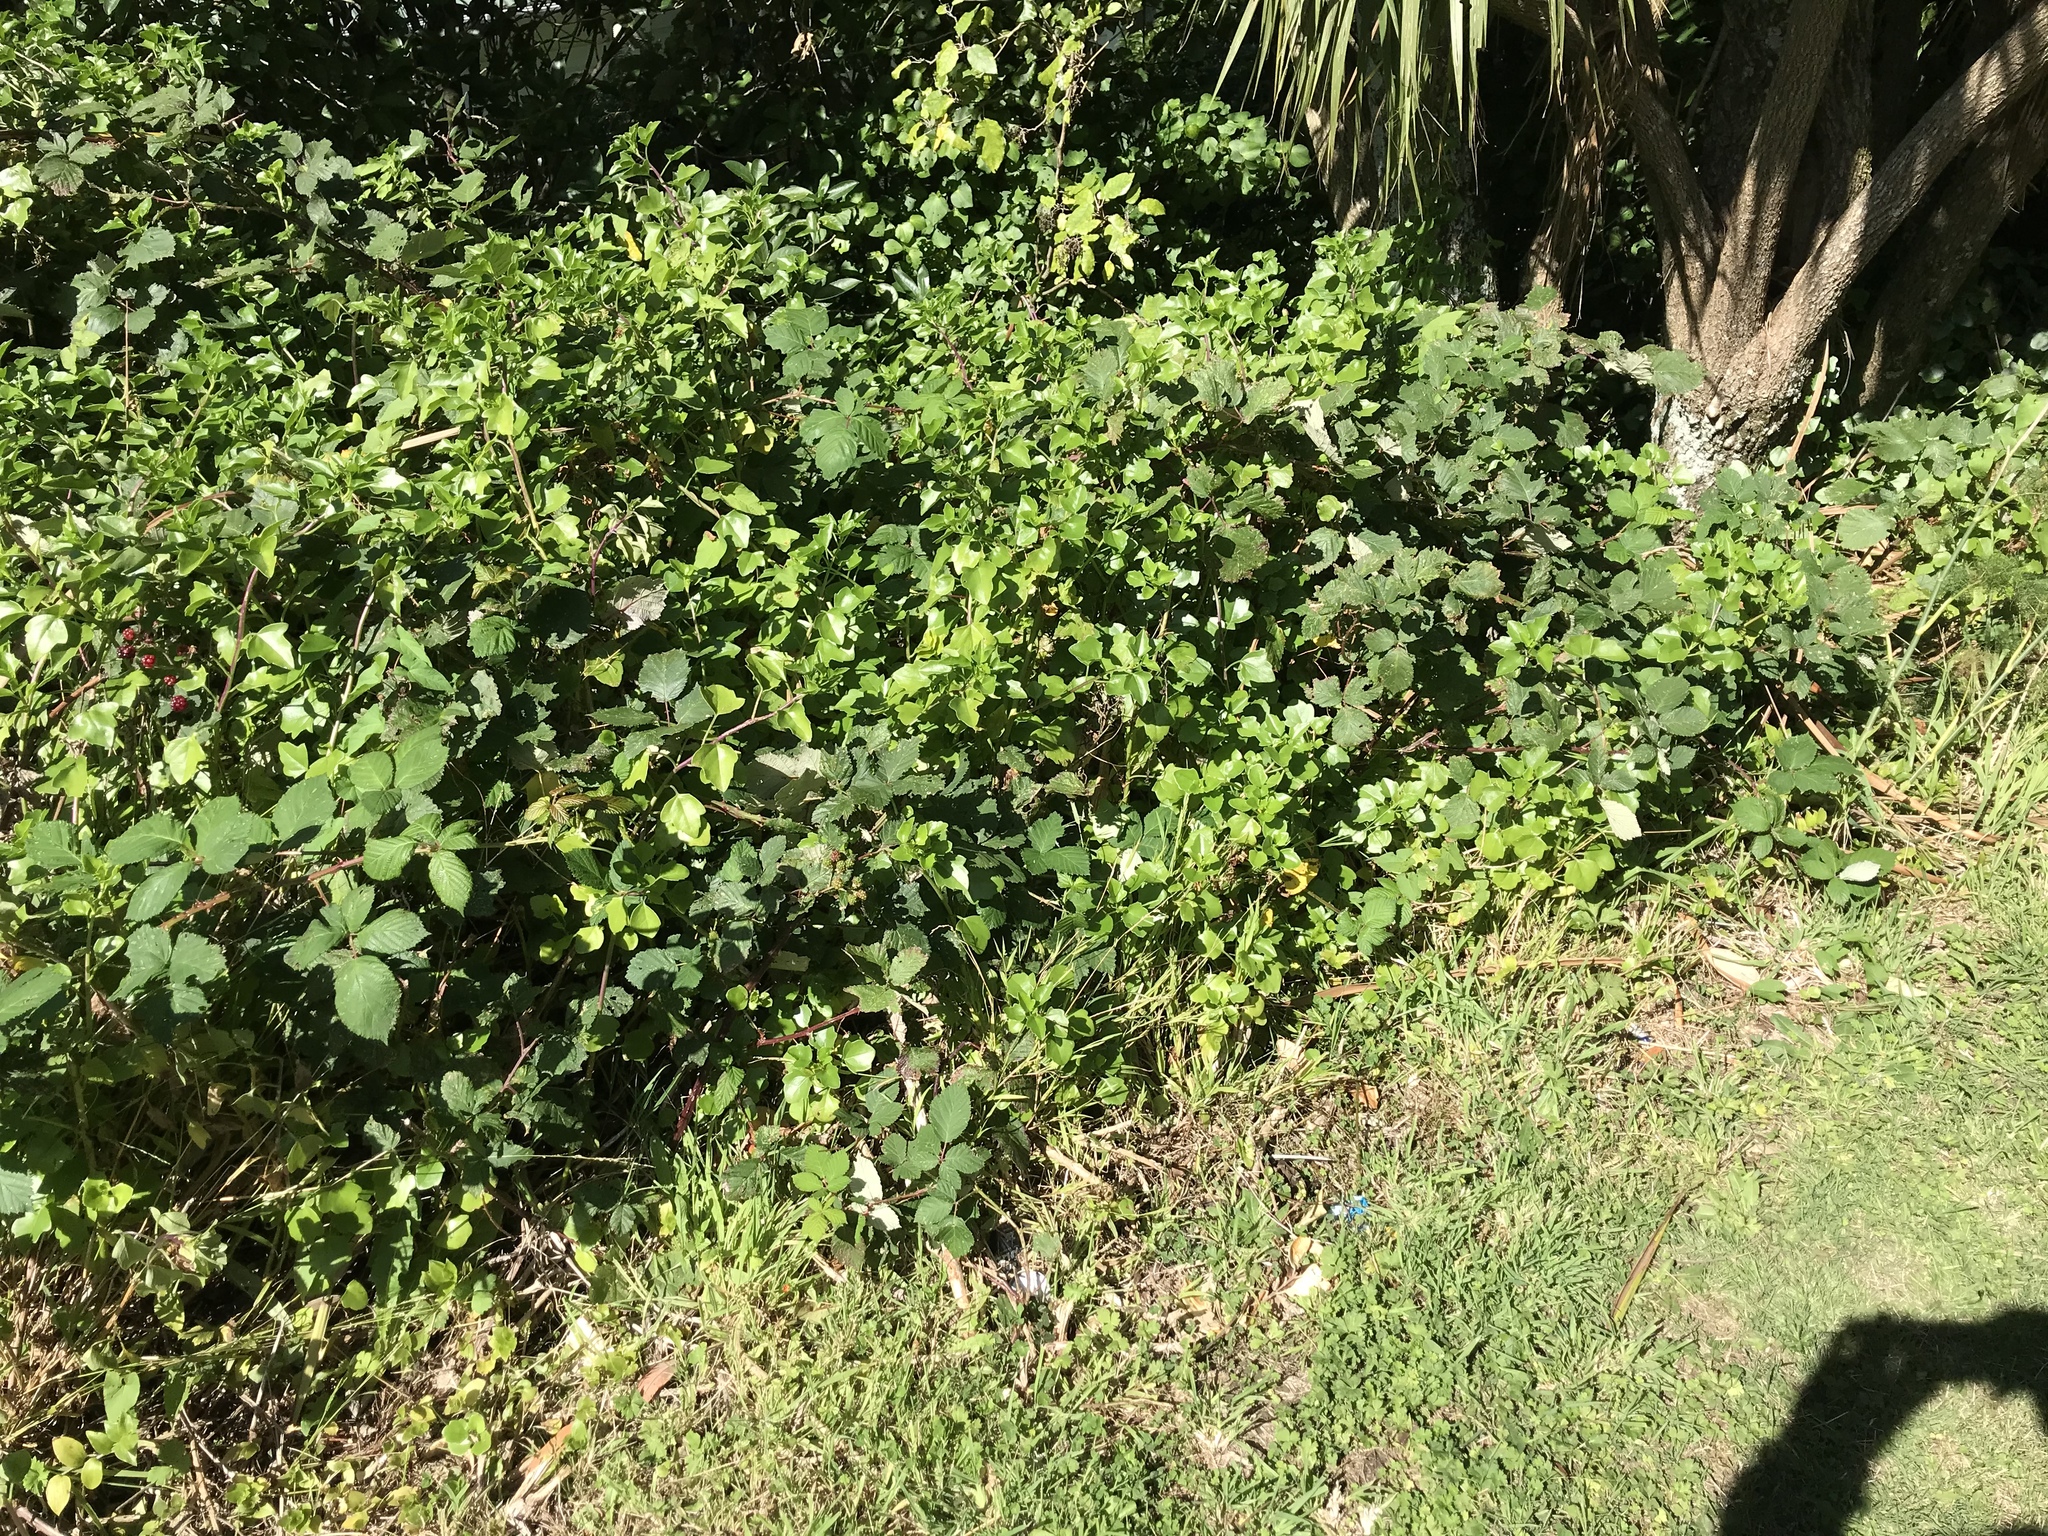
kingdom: Plantae
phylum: Tracheophyta
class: Magnoliopsida
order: Asterales
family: Asteraceae
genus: Senecio
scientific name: Senecio angulatus
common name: Climbing groundsel
